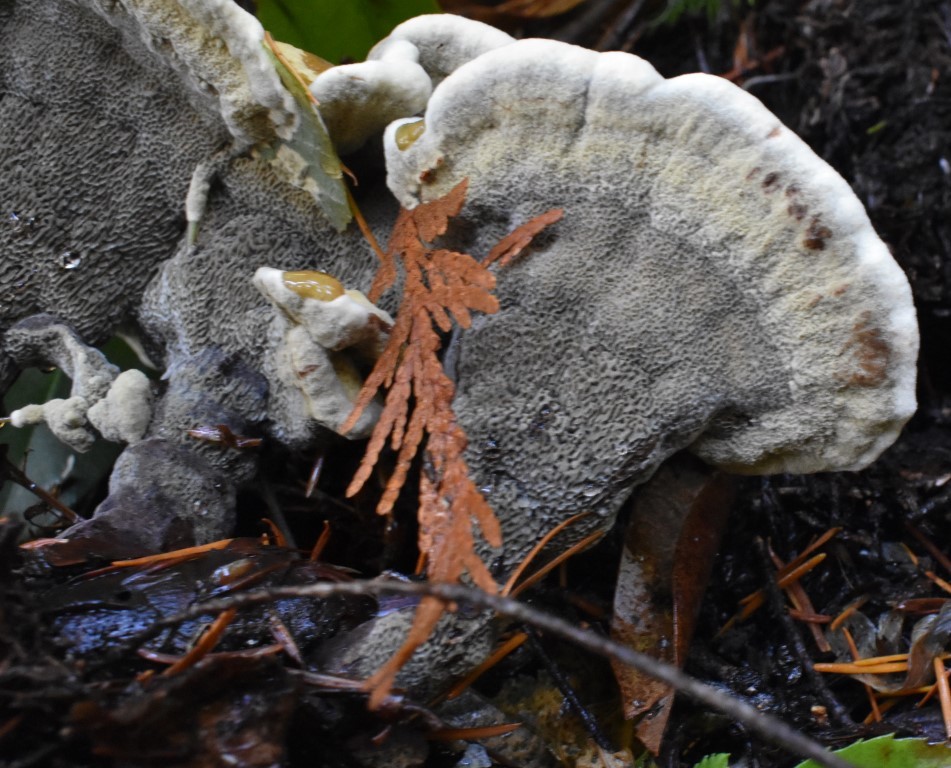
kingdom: Fungi
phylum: Basidiomycota
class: Agaricomycetes
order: Polyporales
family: Laetiporaceae
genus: Phaeolus
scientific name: Phaeolus schweinitzii
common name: Dyer's mazegill
